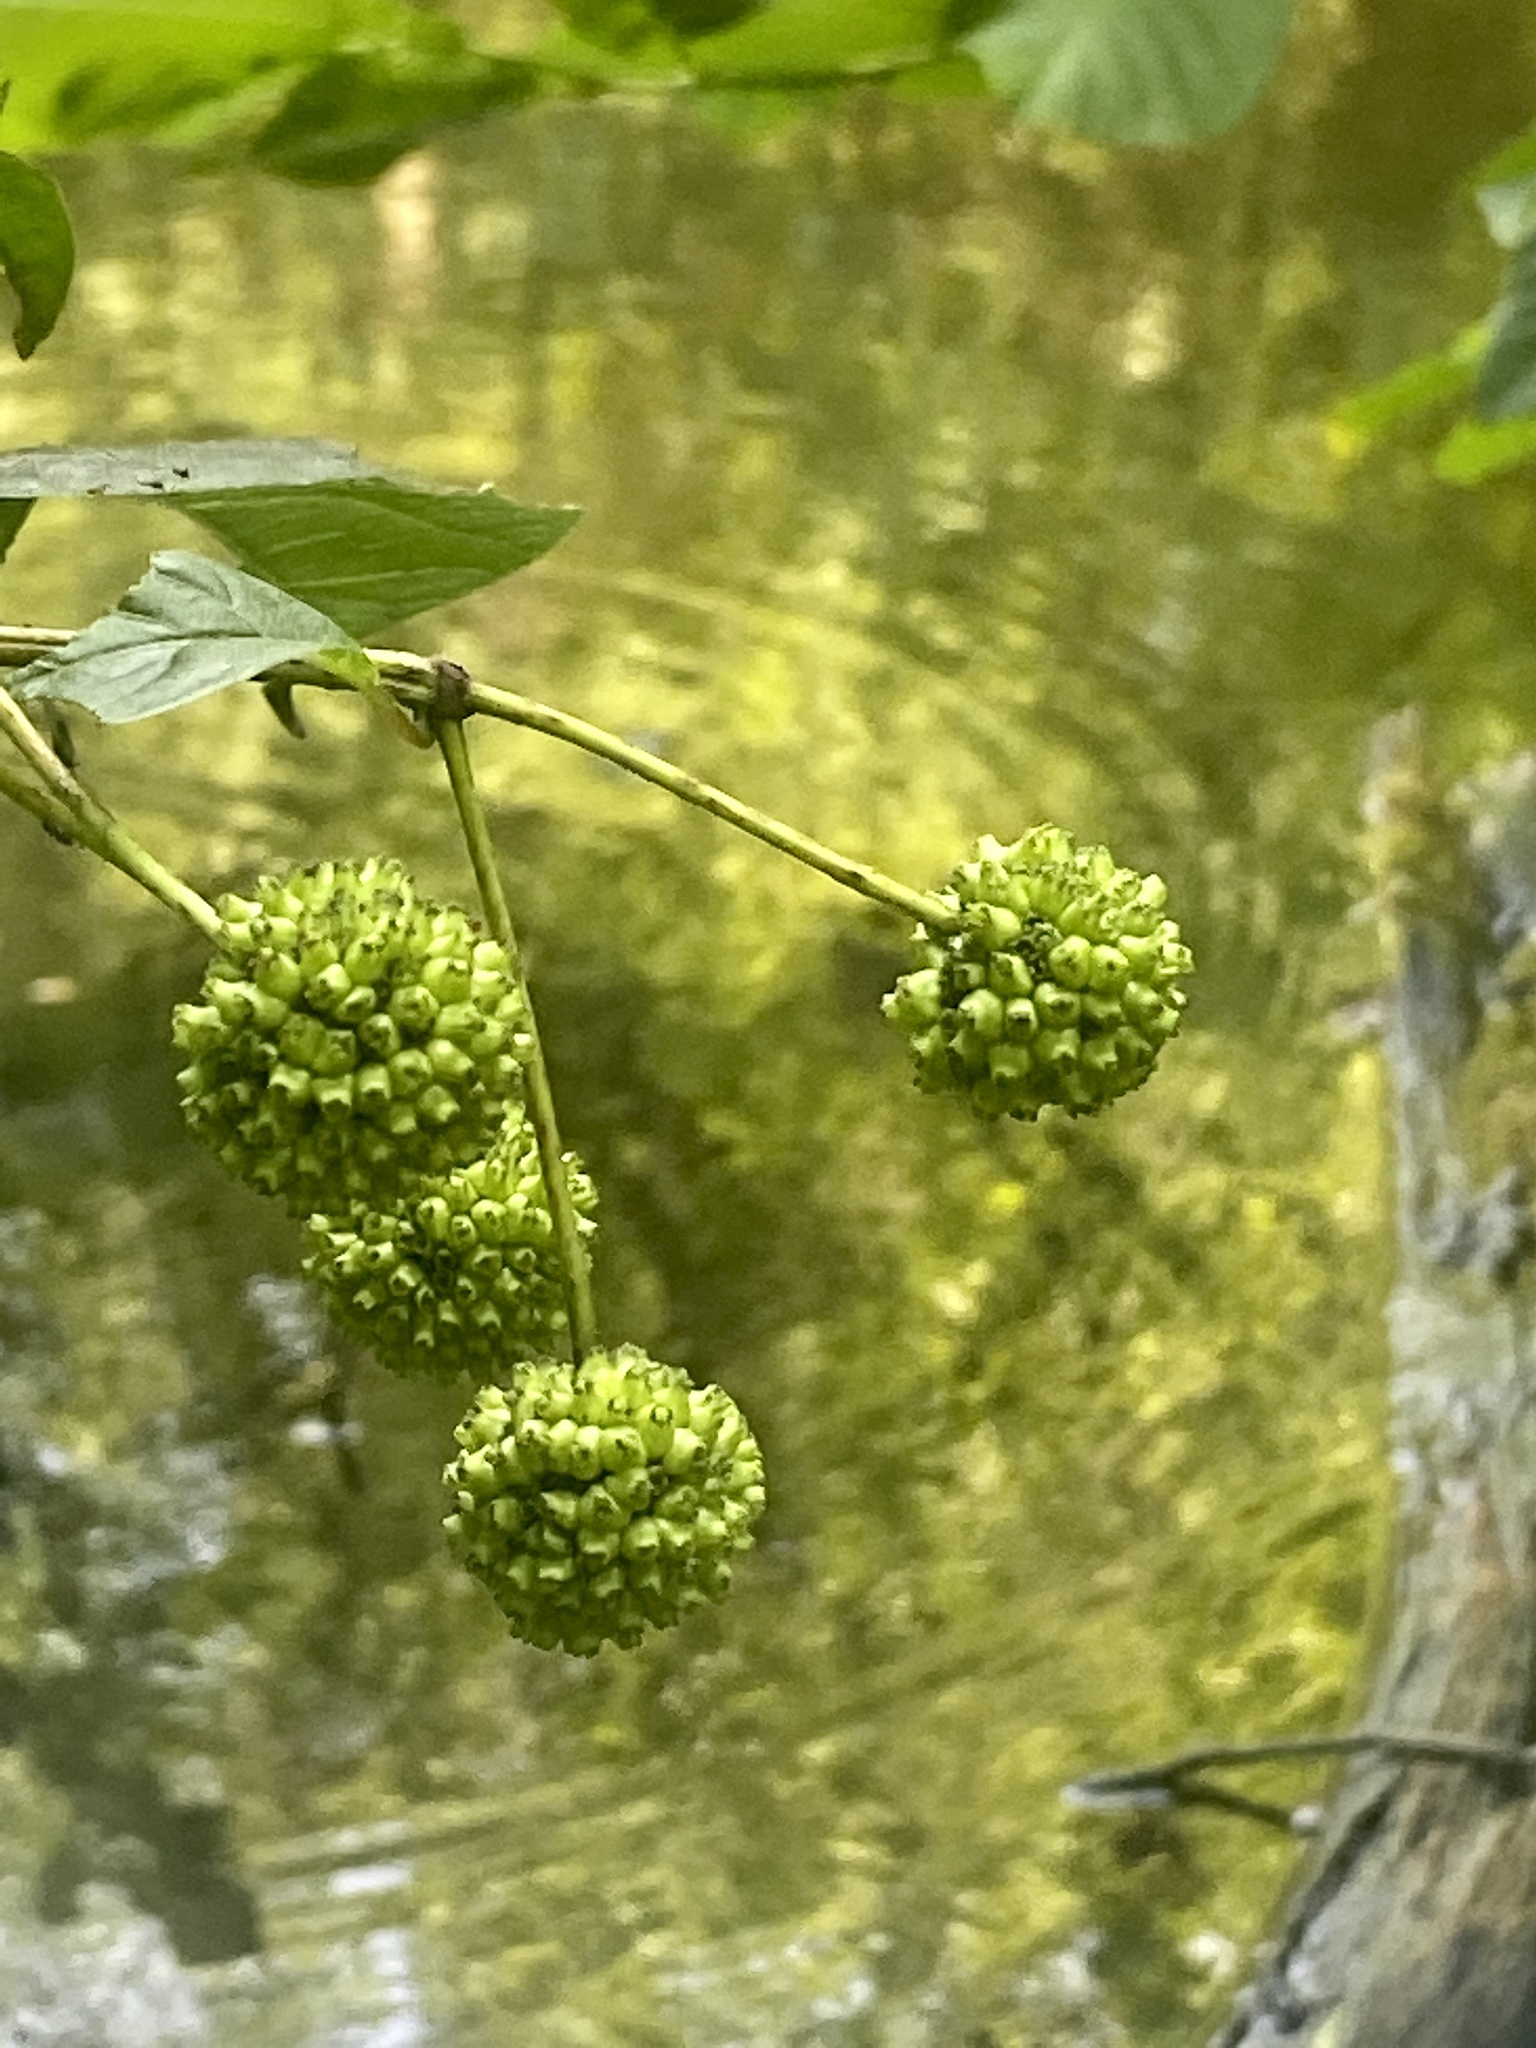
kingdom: Plantae
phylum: Tracheophyta
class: Magnoliopsida
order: Gentianales
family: Rubiaceae
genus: Cephalanthus
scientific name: Cephalanthus occidentalis
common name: Button-willow
